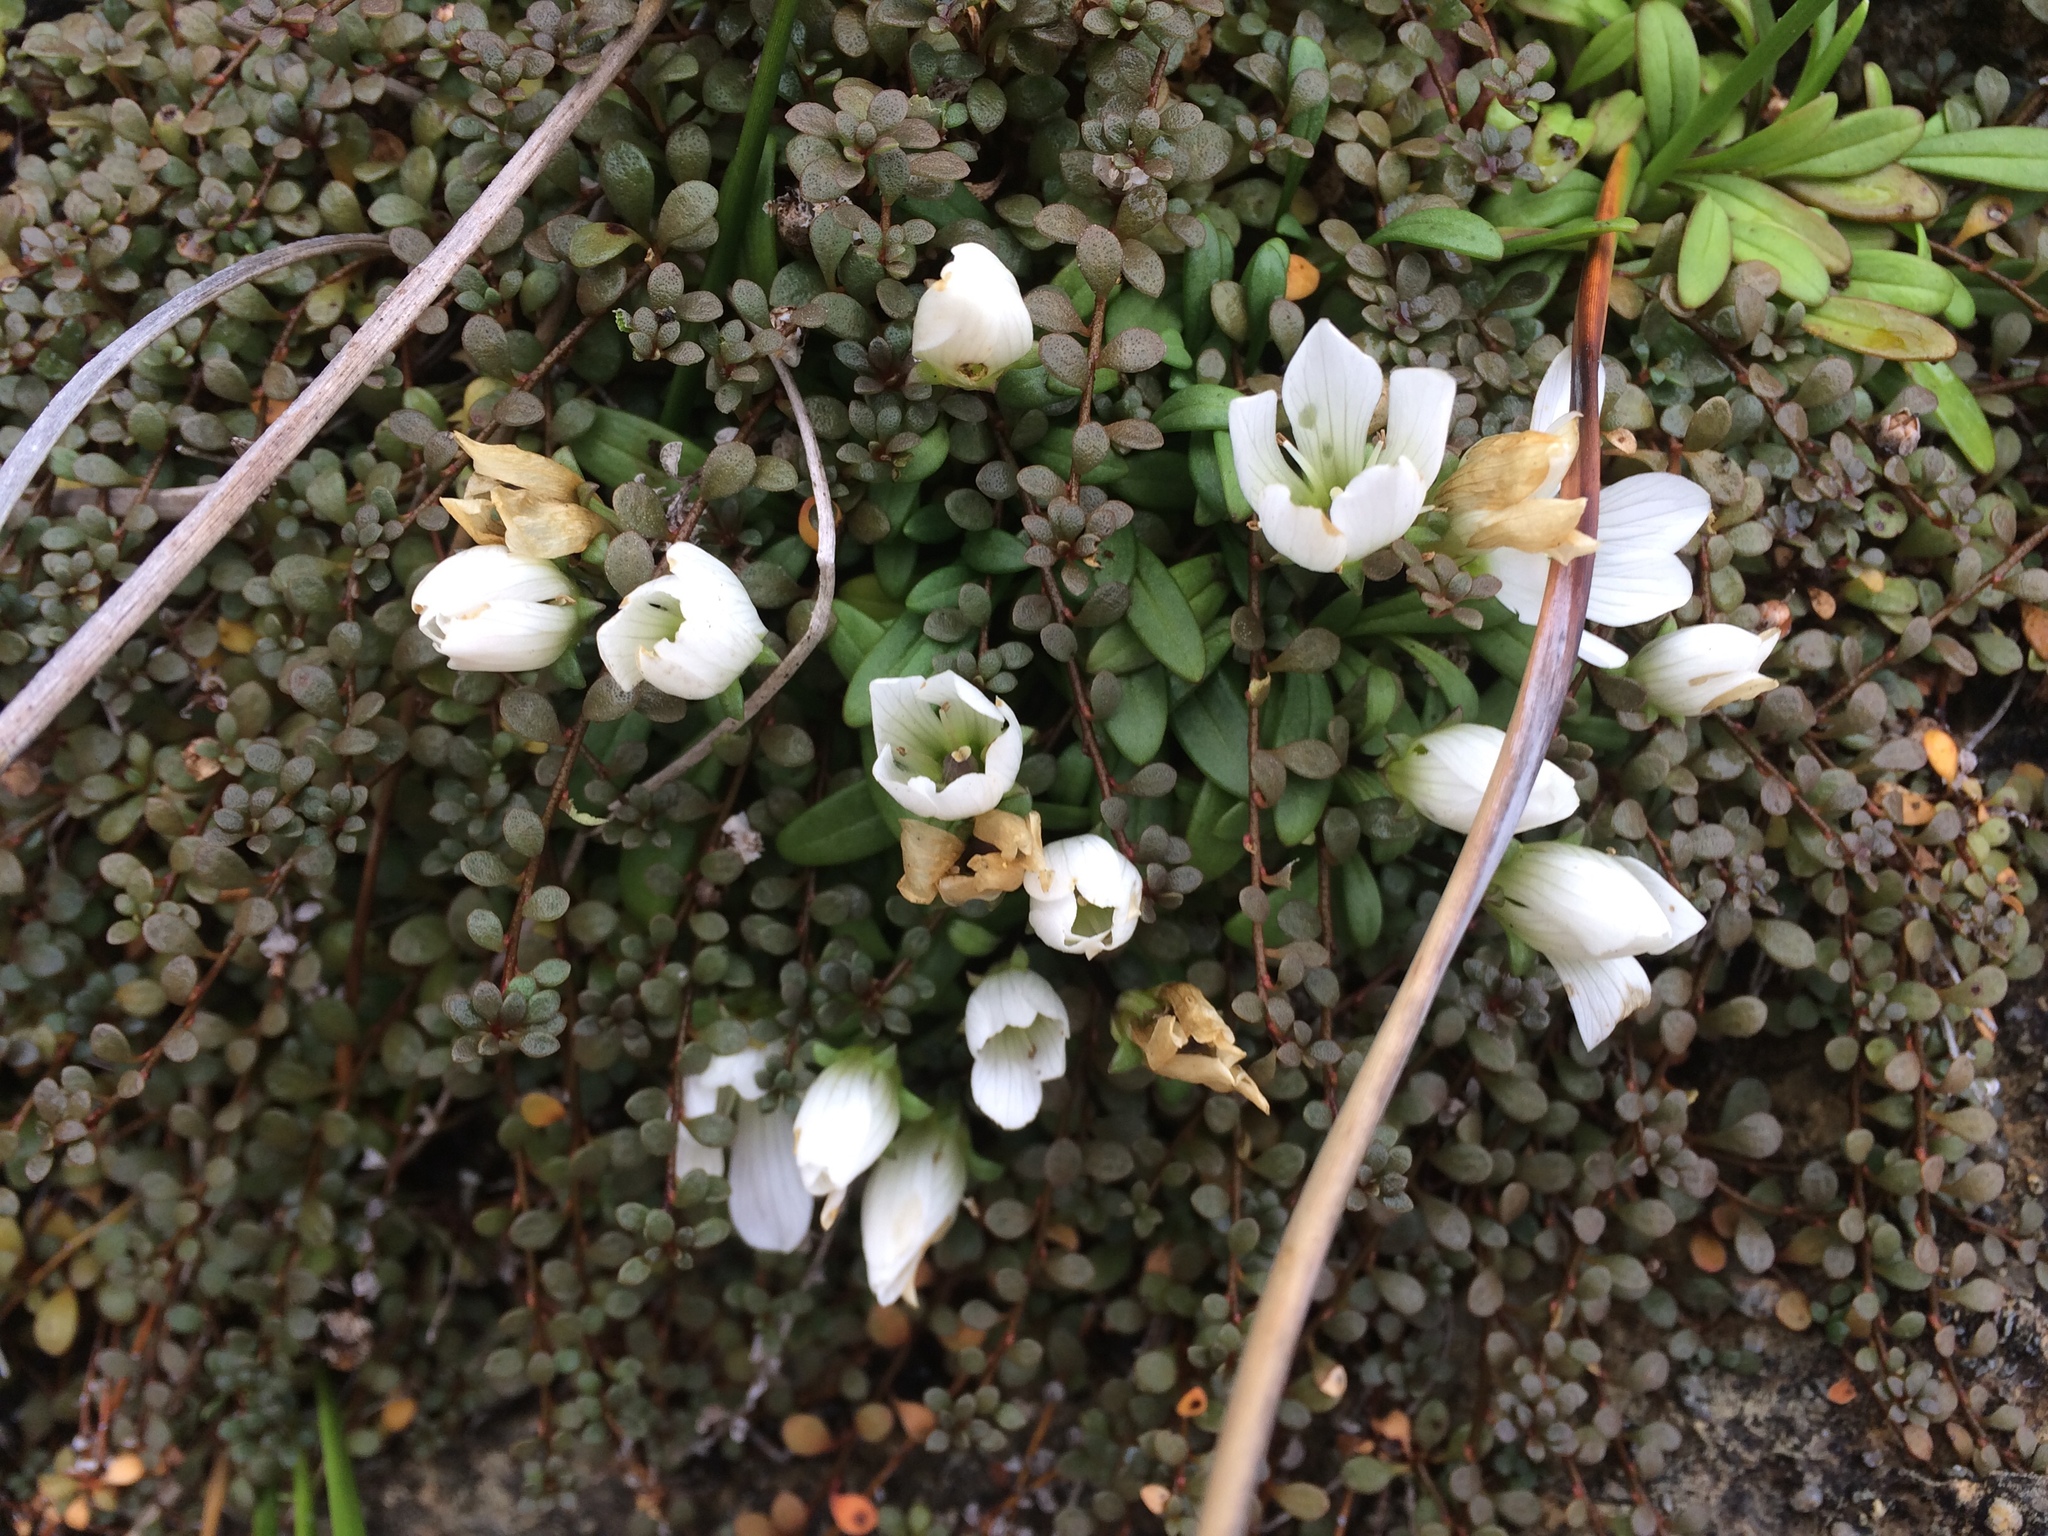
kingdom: Plantae
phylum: Tracheophyta
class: Magnoliopsida
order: Gentianales
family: Gentianaceae
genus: Gentianella
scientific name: Gentianella saxosa
